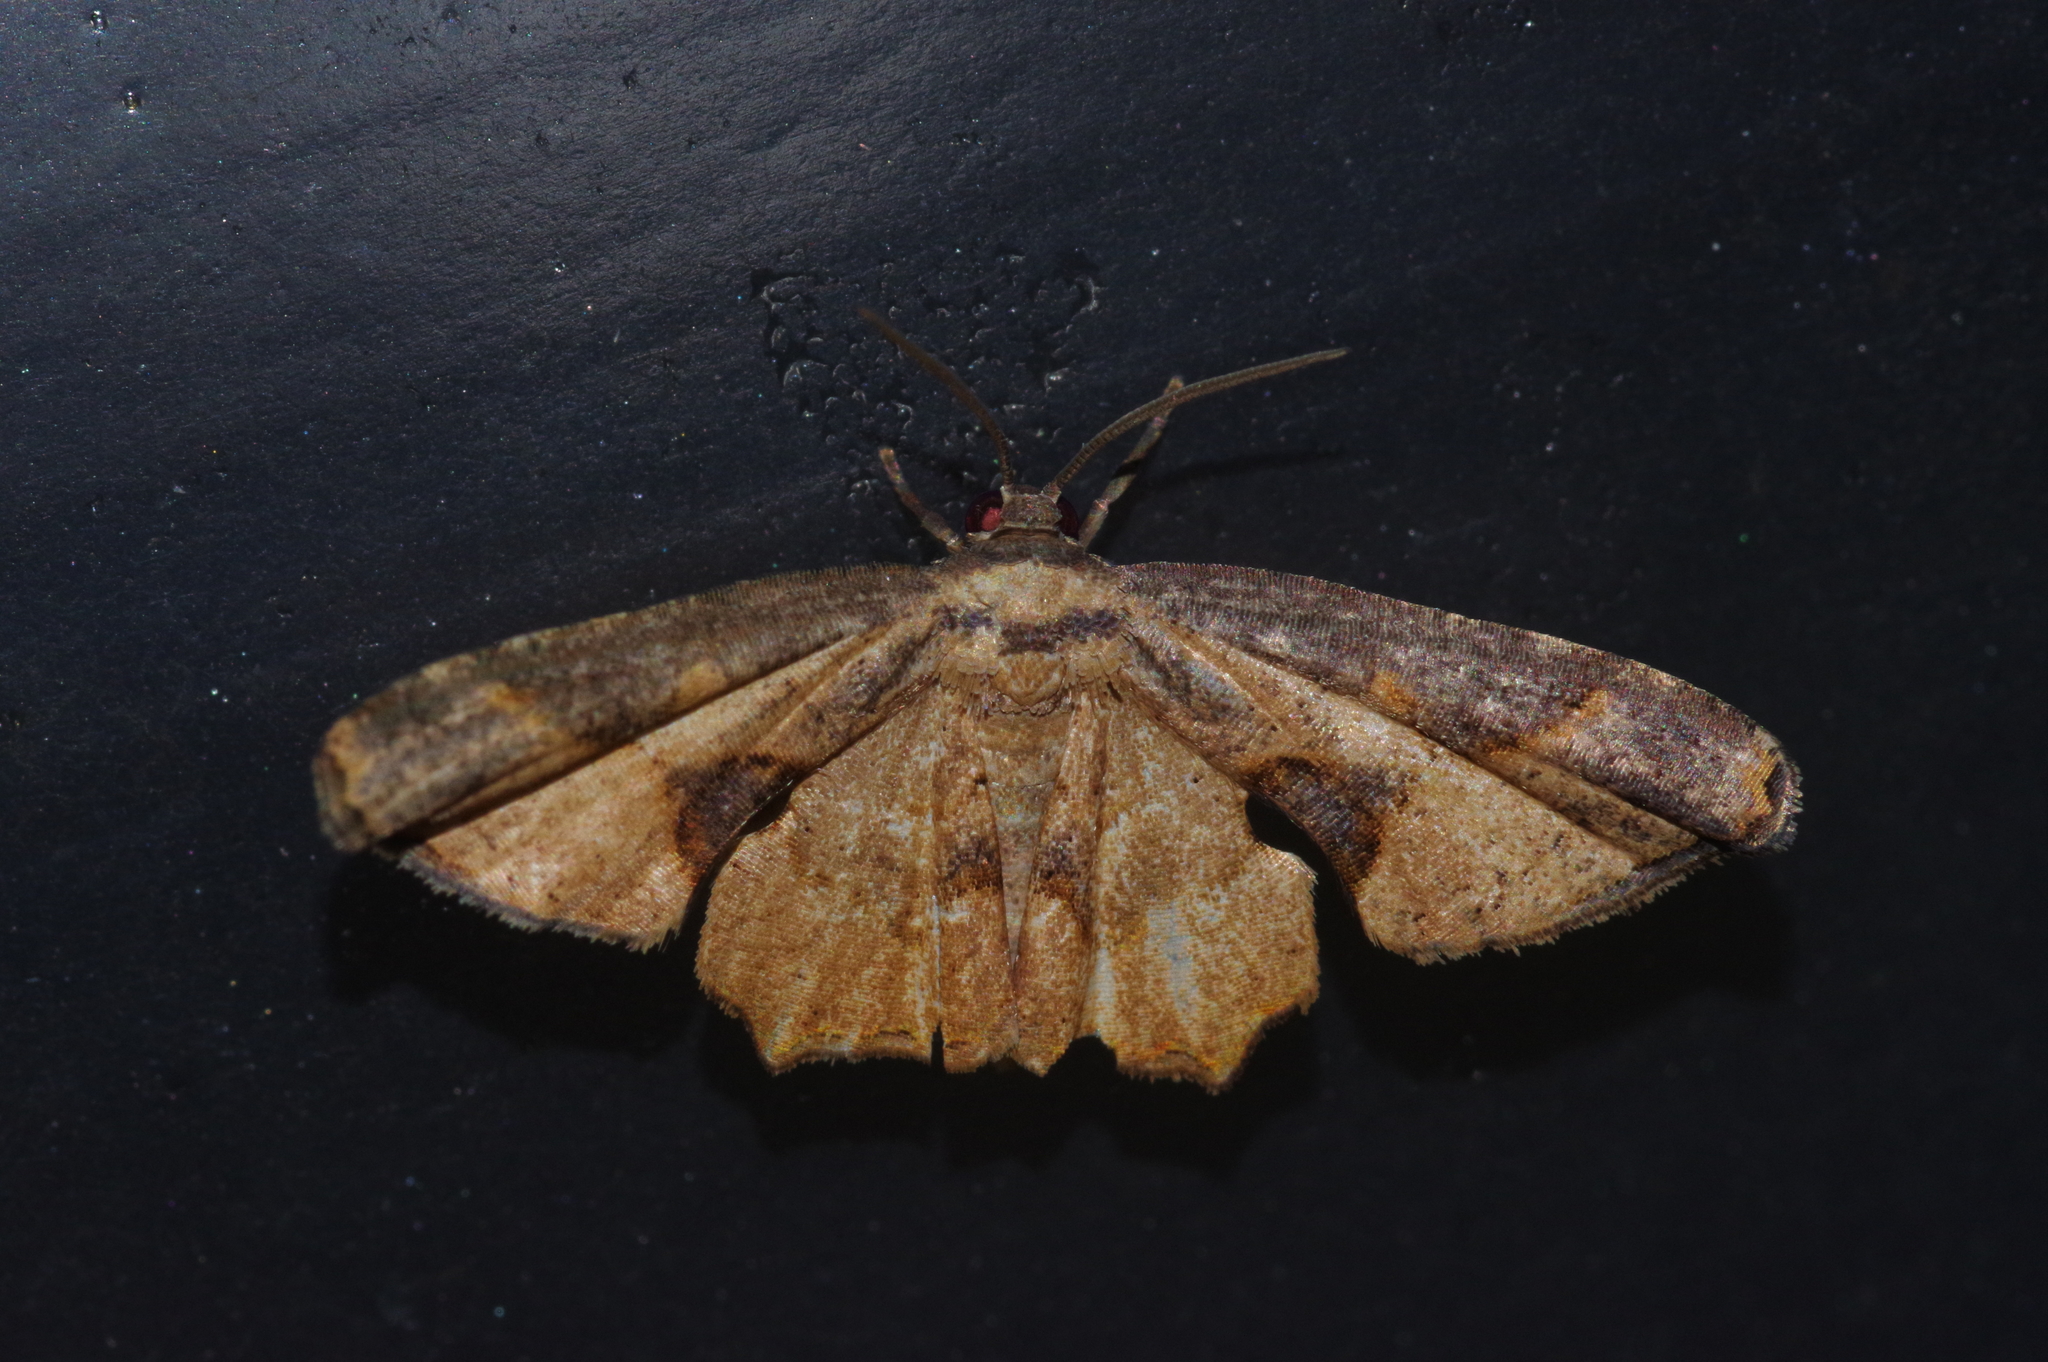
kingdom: Animalia
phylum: Arthropoda
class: Insecta
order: Lepidoptera
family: Uraniidae
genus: Monobolodes
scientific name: Monobolodes prunaria
